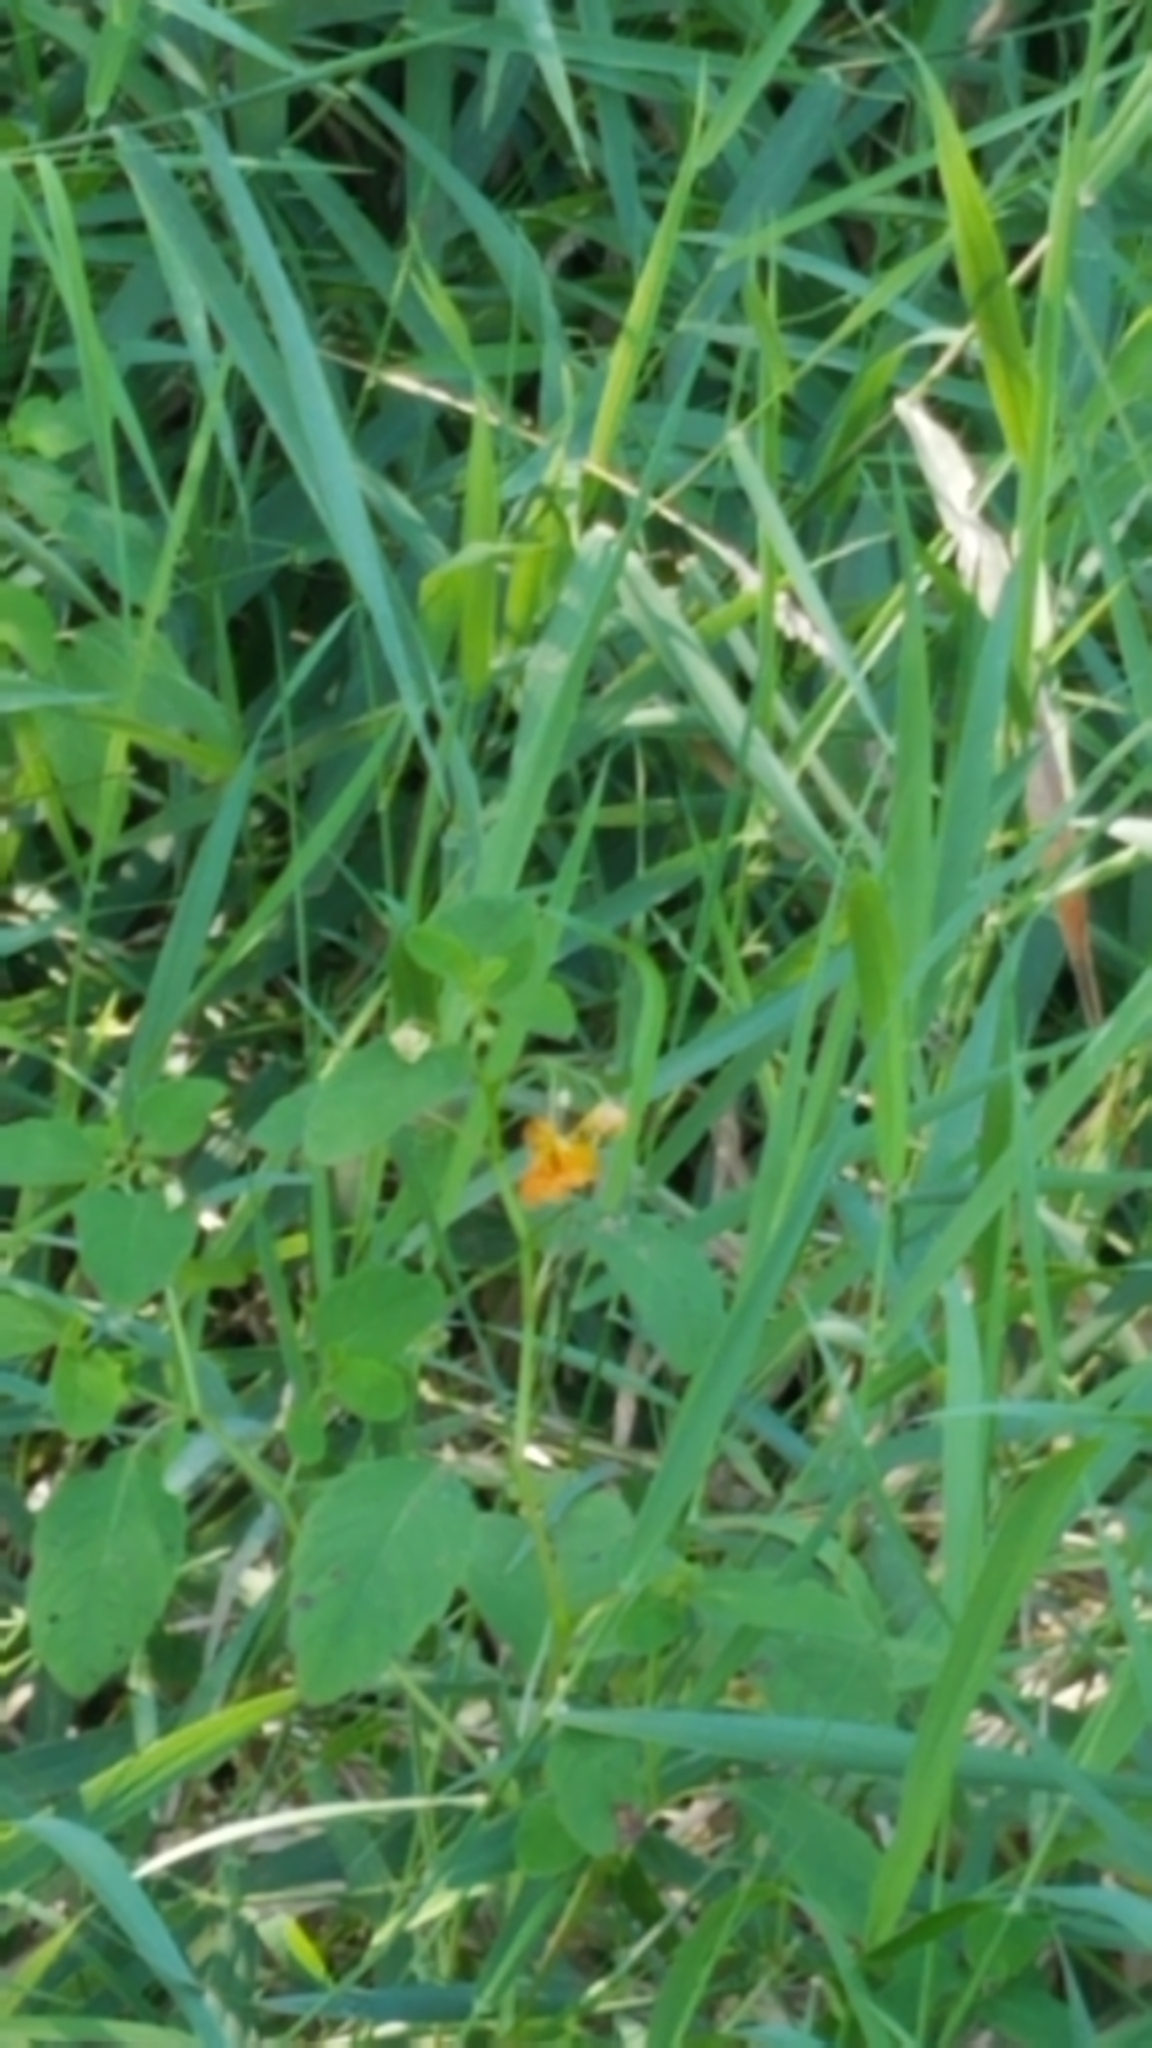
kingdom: Plantae
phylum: Tracheophyta
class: Magnoliopsida
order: Ericales
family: Balsaminaceae
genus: Impatiens
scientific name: Impatiens capensis
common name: Orange balsam
